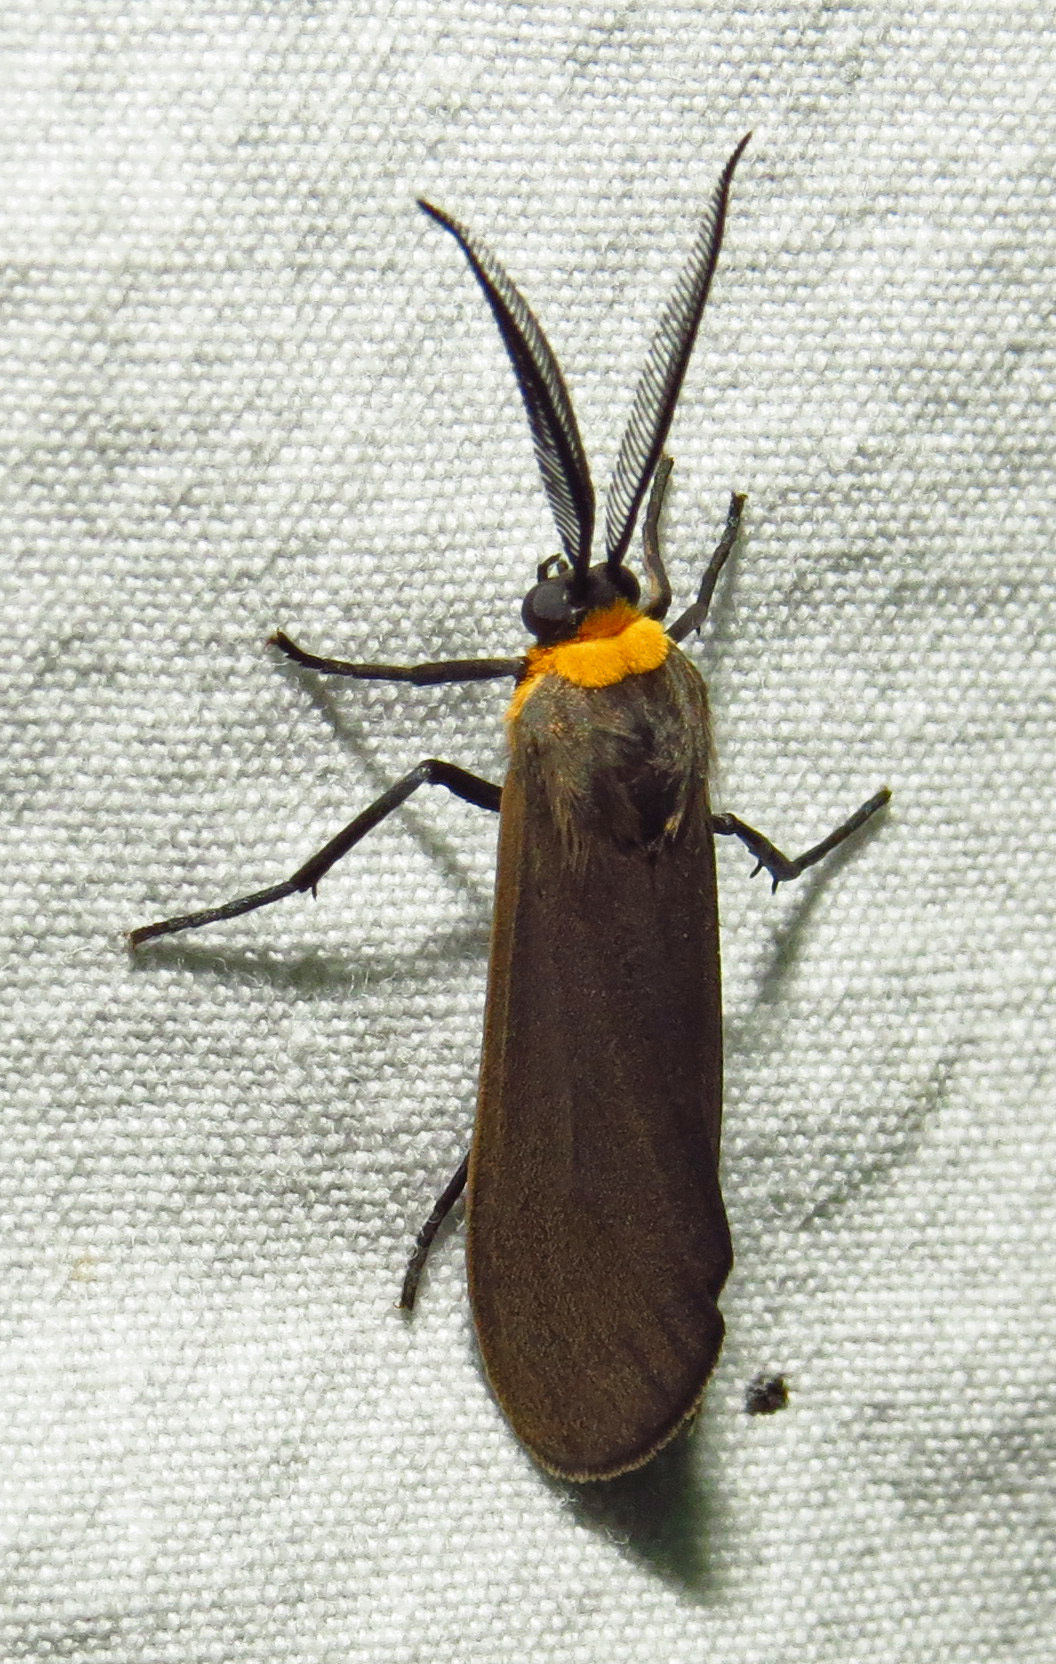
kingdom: Animalia
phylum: Arthropoda
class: Insecta
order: Lepidoptera
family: Erebidae
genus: Cisseps
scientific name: Cisseps fulvicollis
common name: Yellow-collared scape moth
